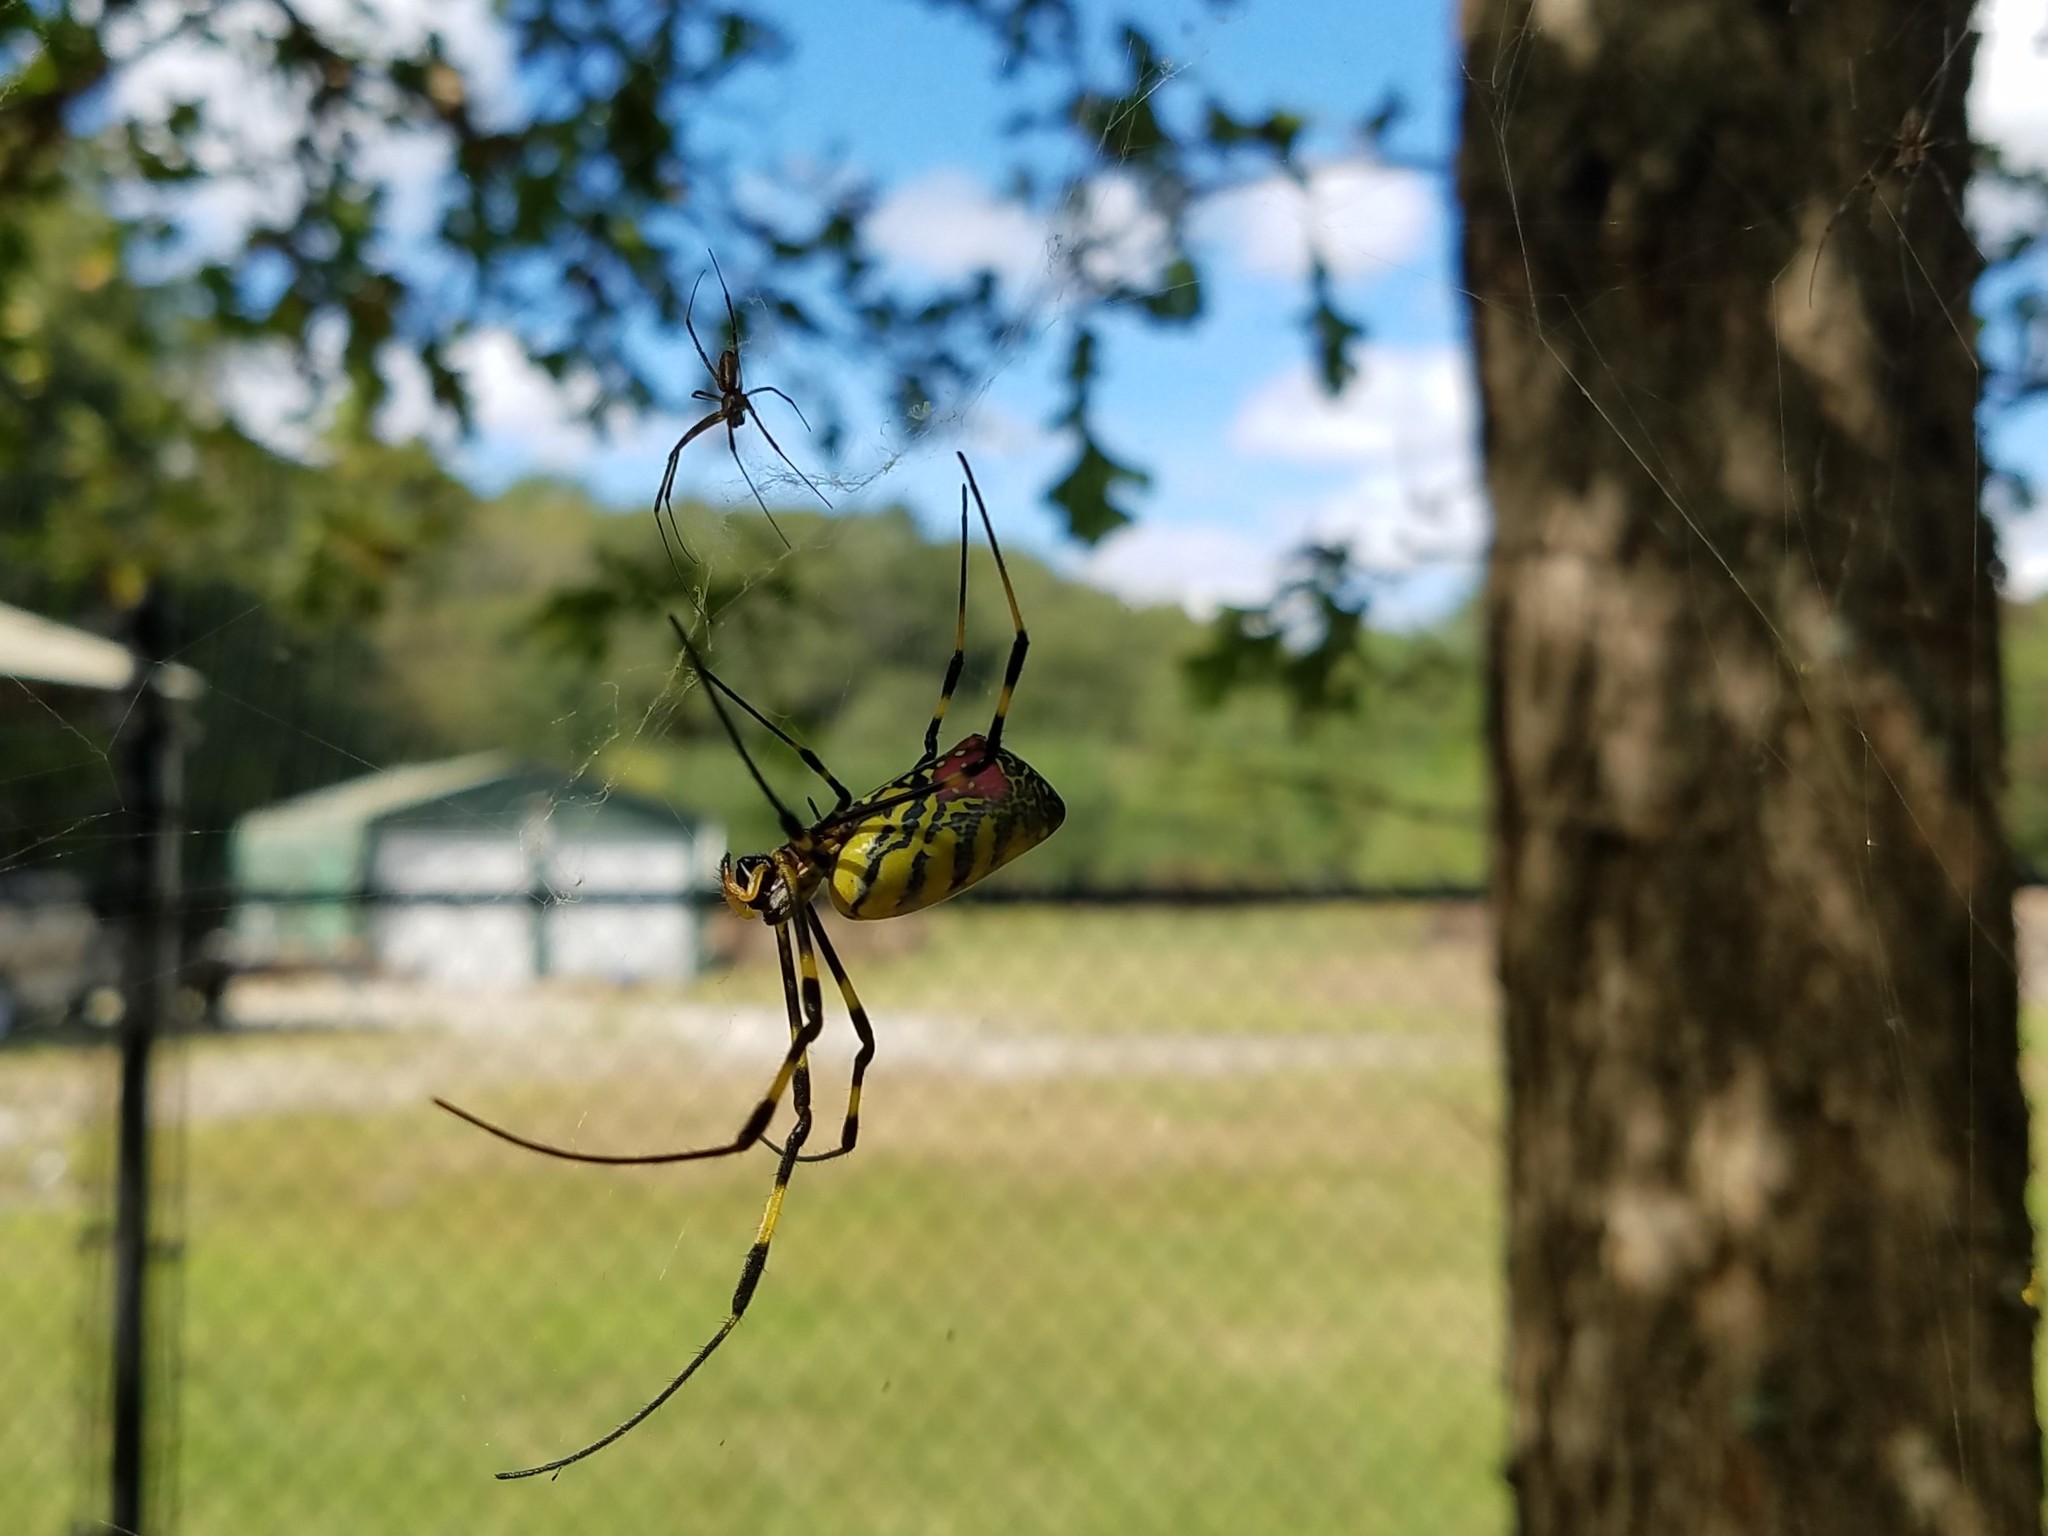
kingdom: Animalia
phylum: Arthropoda
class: Arachnida
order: Araneae
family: Araneidae
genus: Trichonephila
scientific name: Trichonephila clavata
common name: Jorō spider
